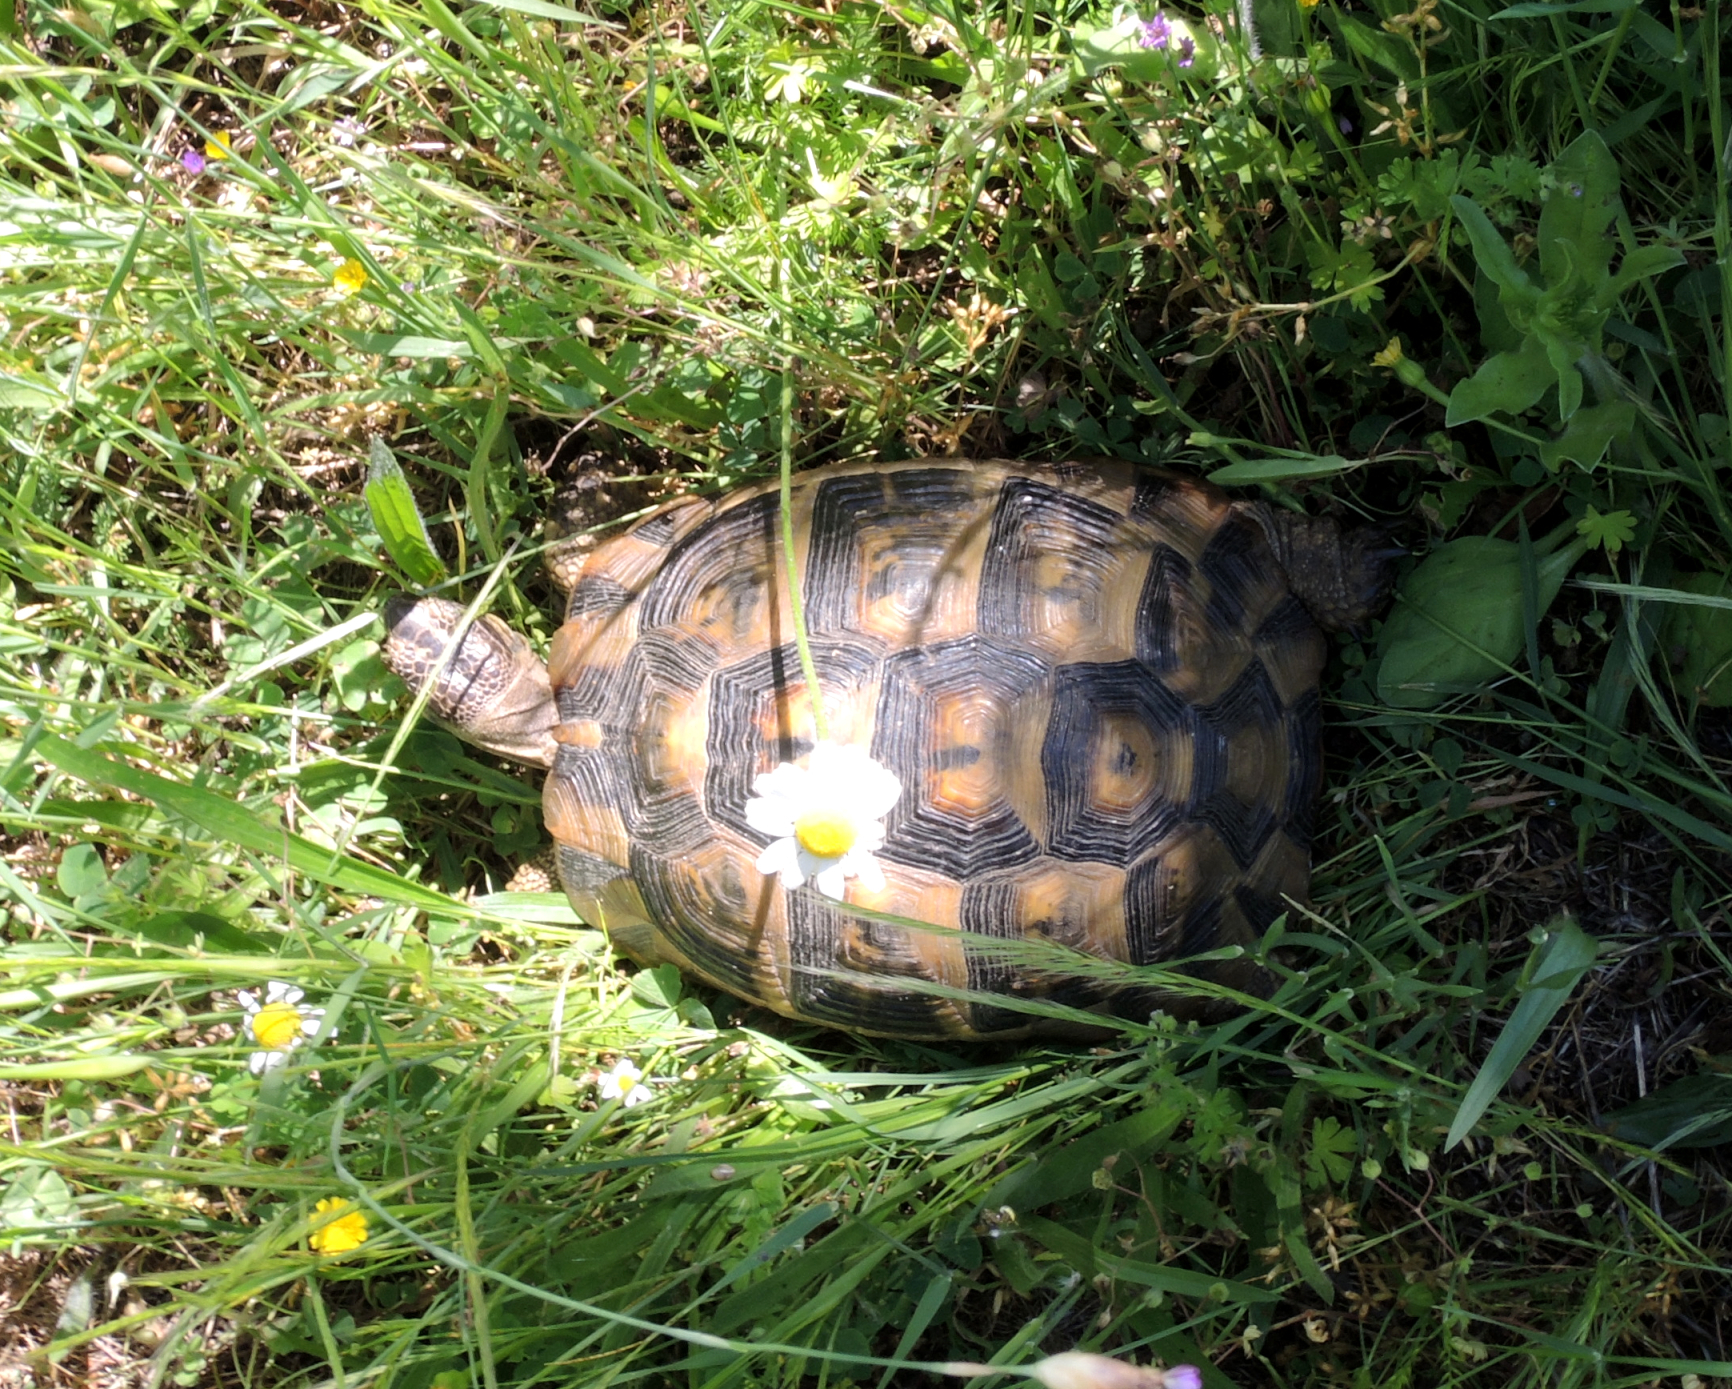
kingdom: Animalia
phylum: Chordata
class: Testudines
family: Testudinidae
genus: Testudo
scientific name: Testudo graeca
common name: Common tortoise
